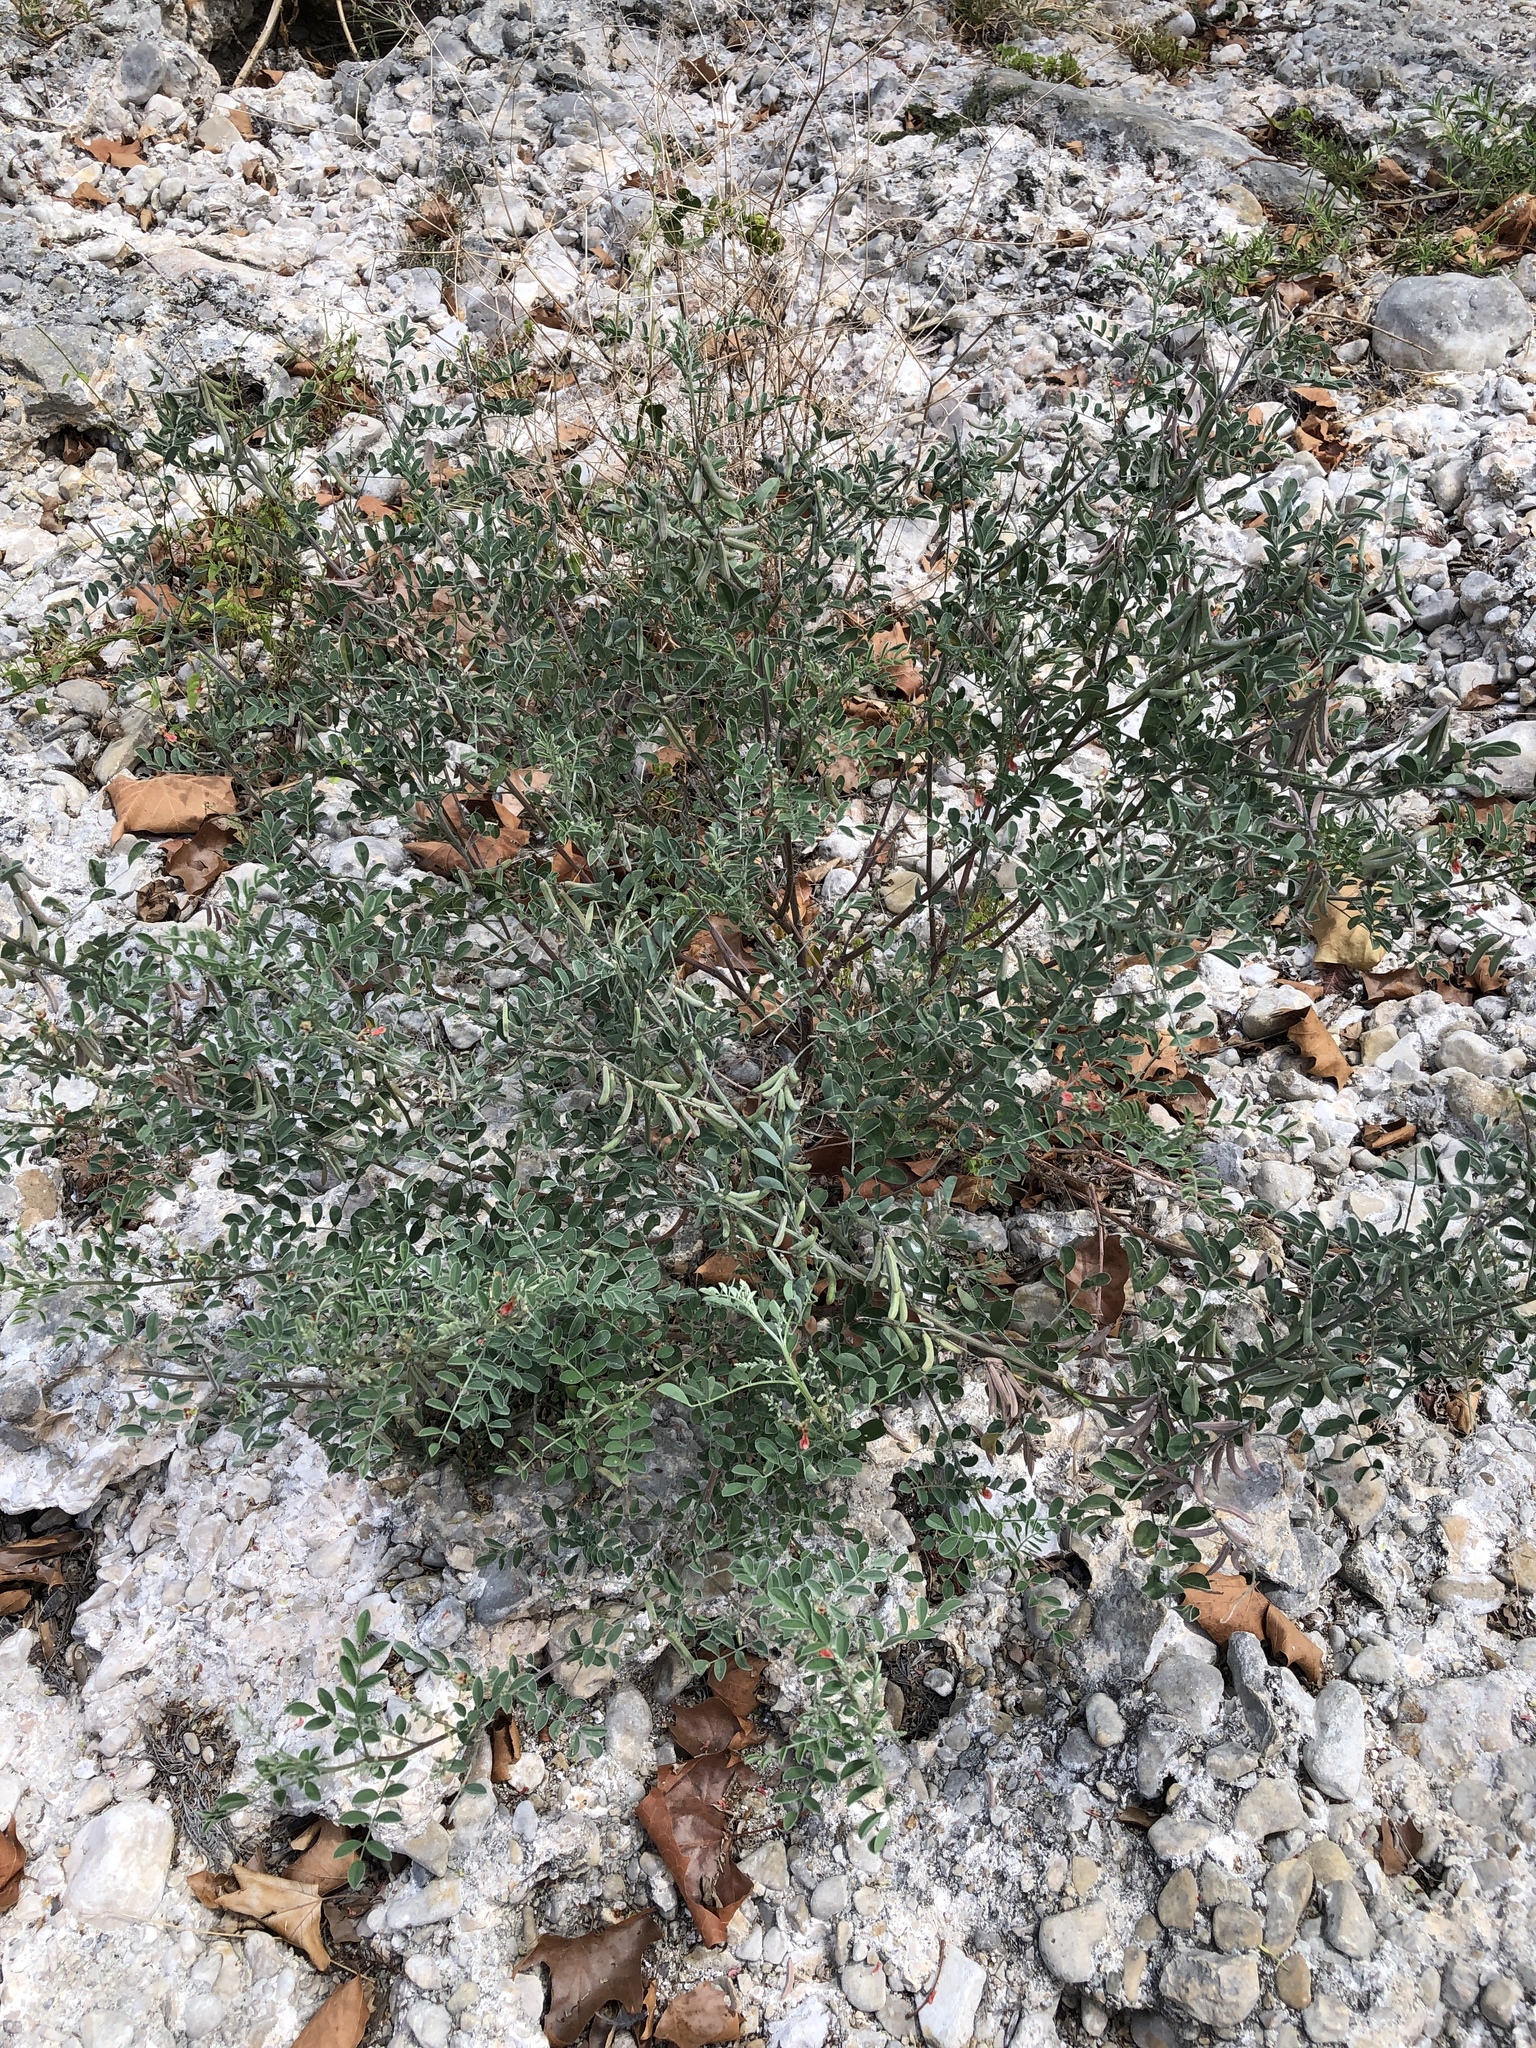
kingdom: Plantae
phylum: Tracheophyta
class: Magnoliopsida
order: Fabales
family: Fabaceae
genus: Indigofera
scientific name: Indigofera lindheimeriana
